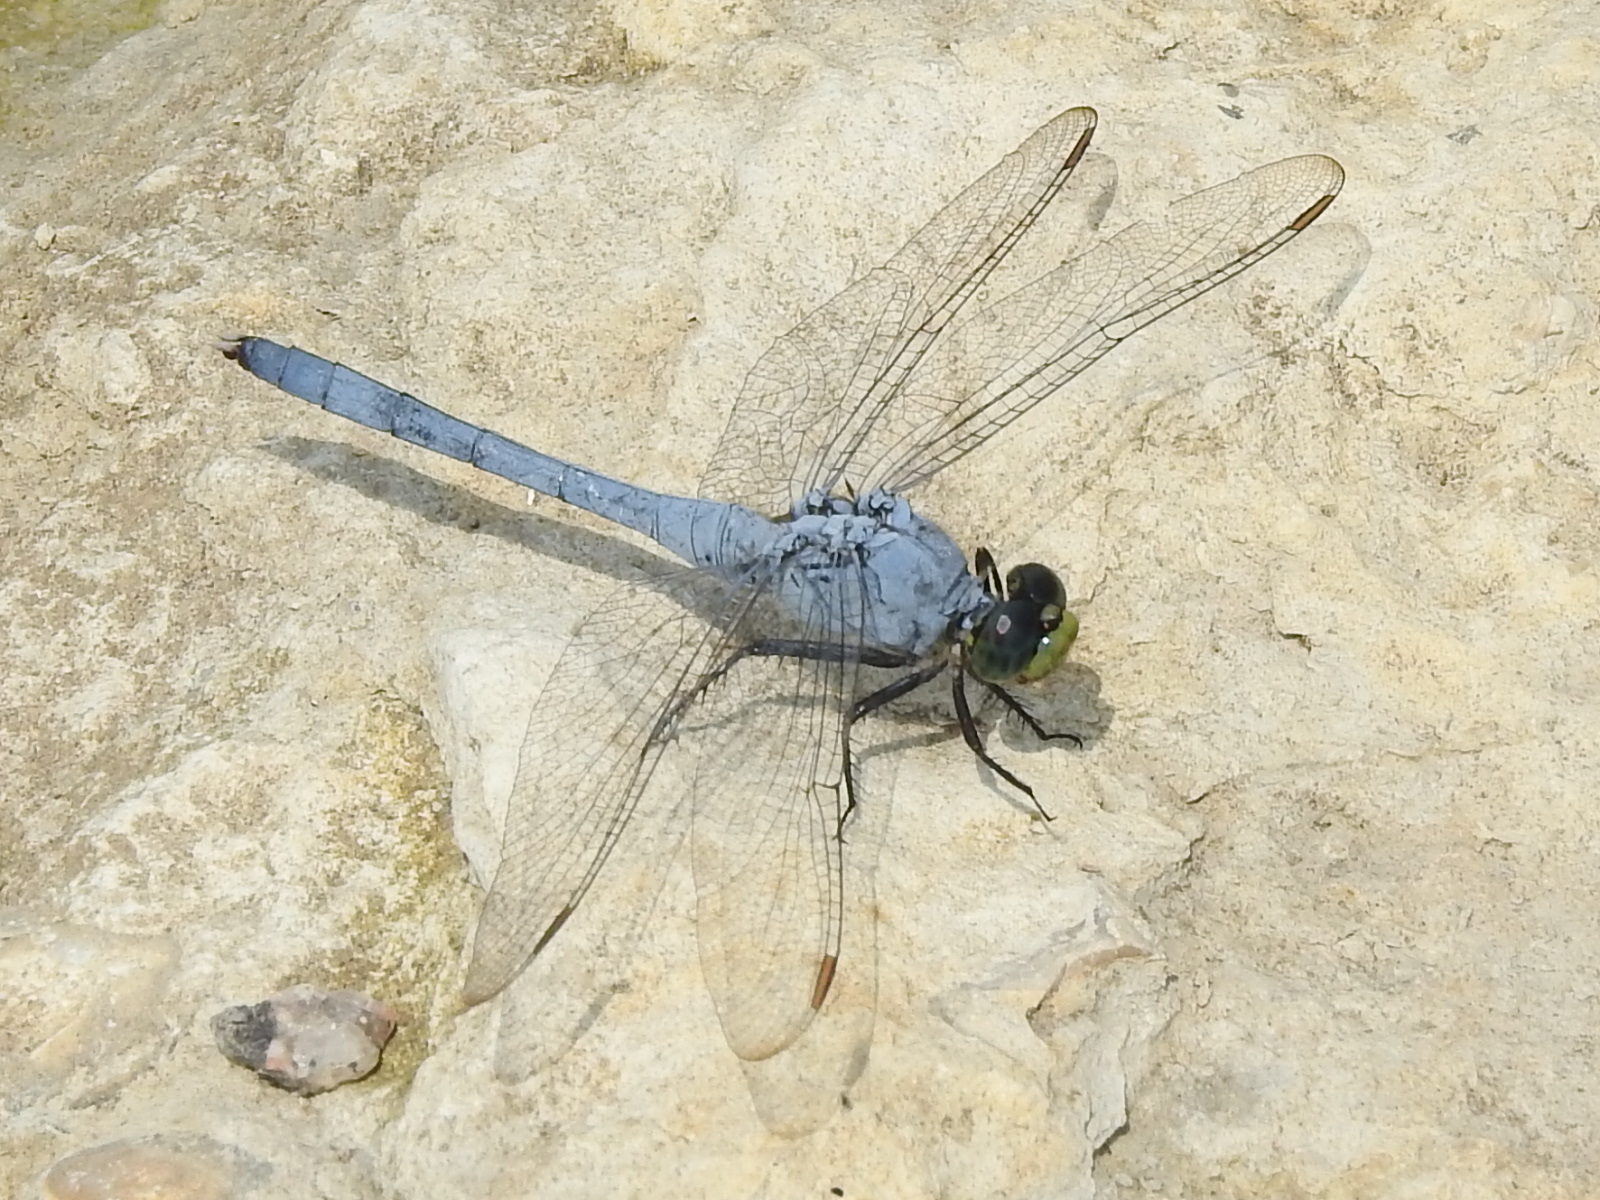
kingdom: Animalia
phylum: Arthropoda
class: Insecta
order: Odonata
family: Libellulidae
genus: Erythemis
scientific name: Erythemis simplicicollis
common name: Eastern pondhawk
